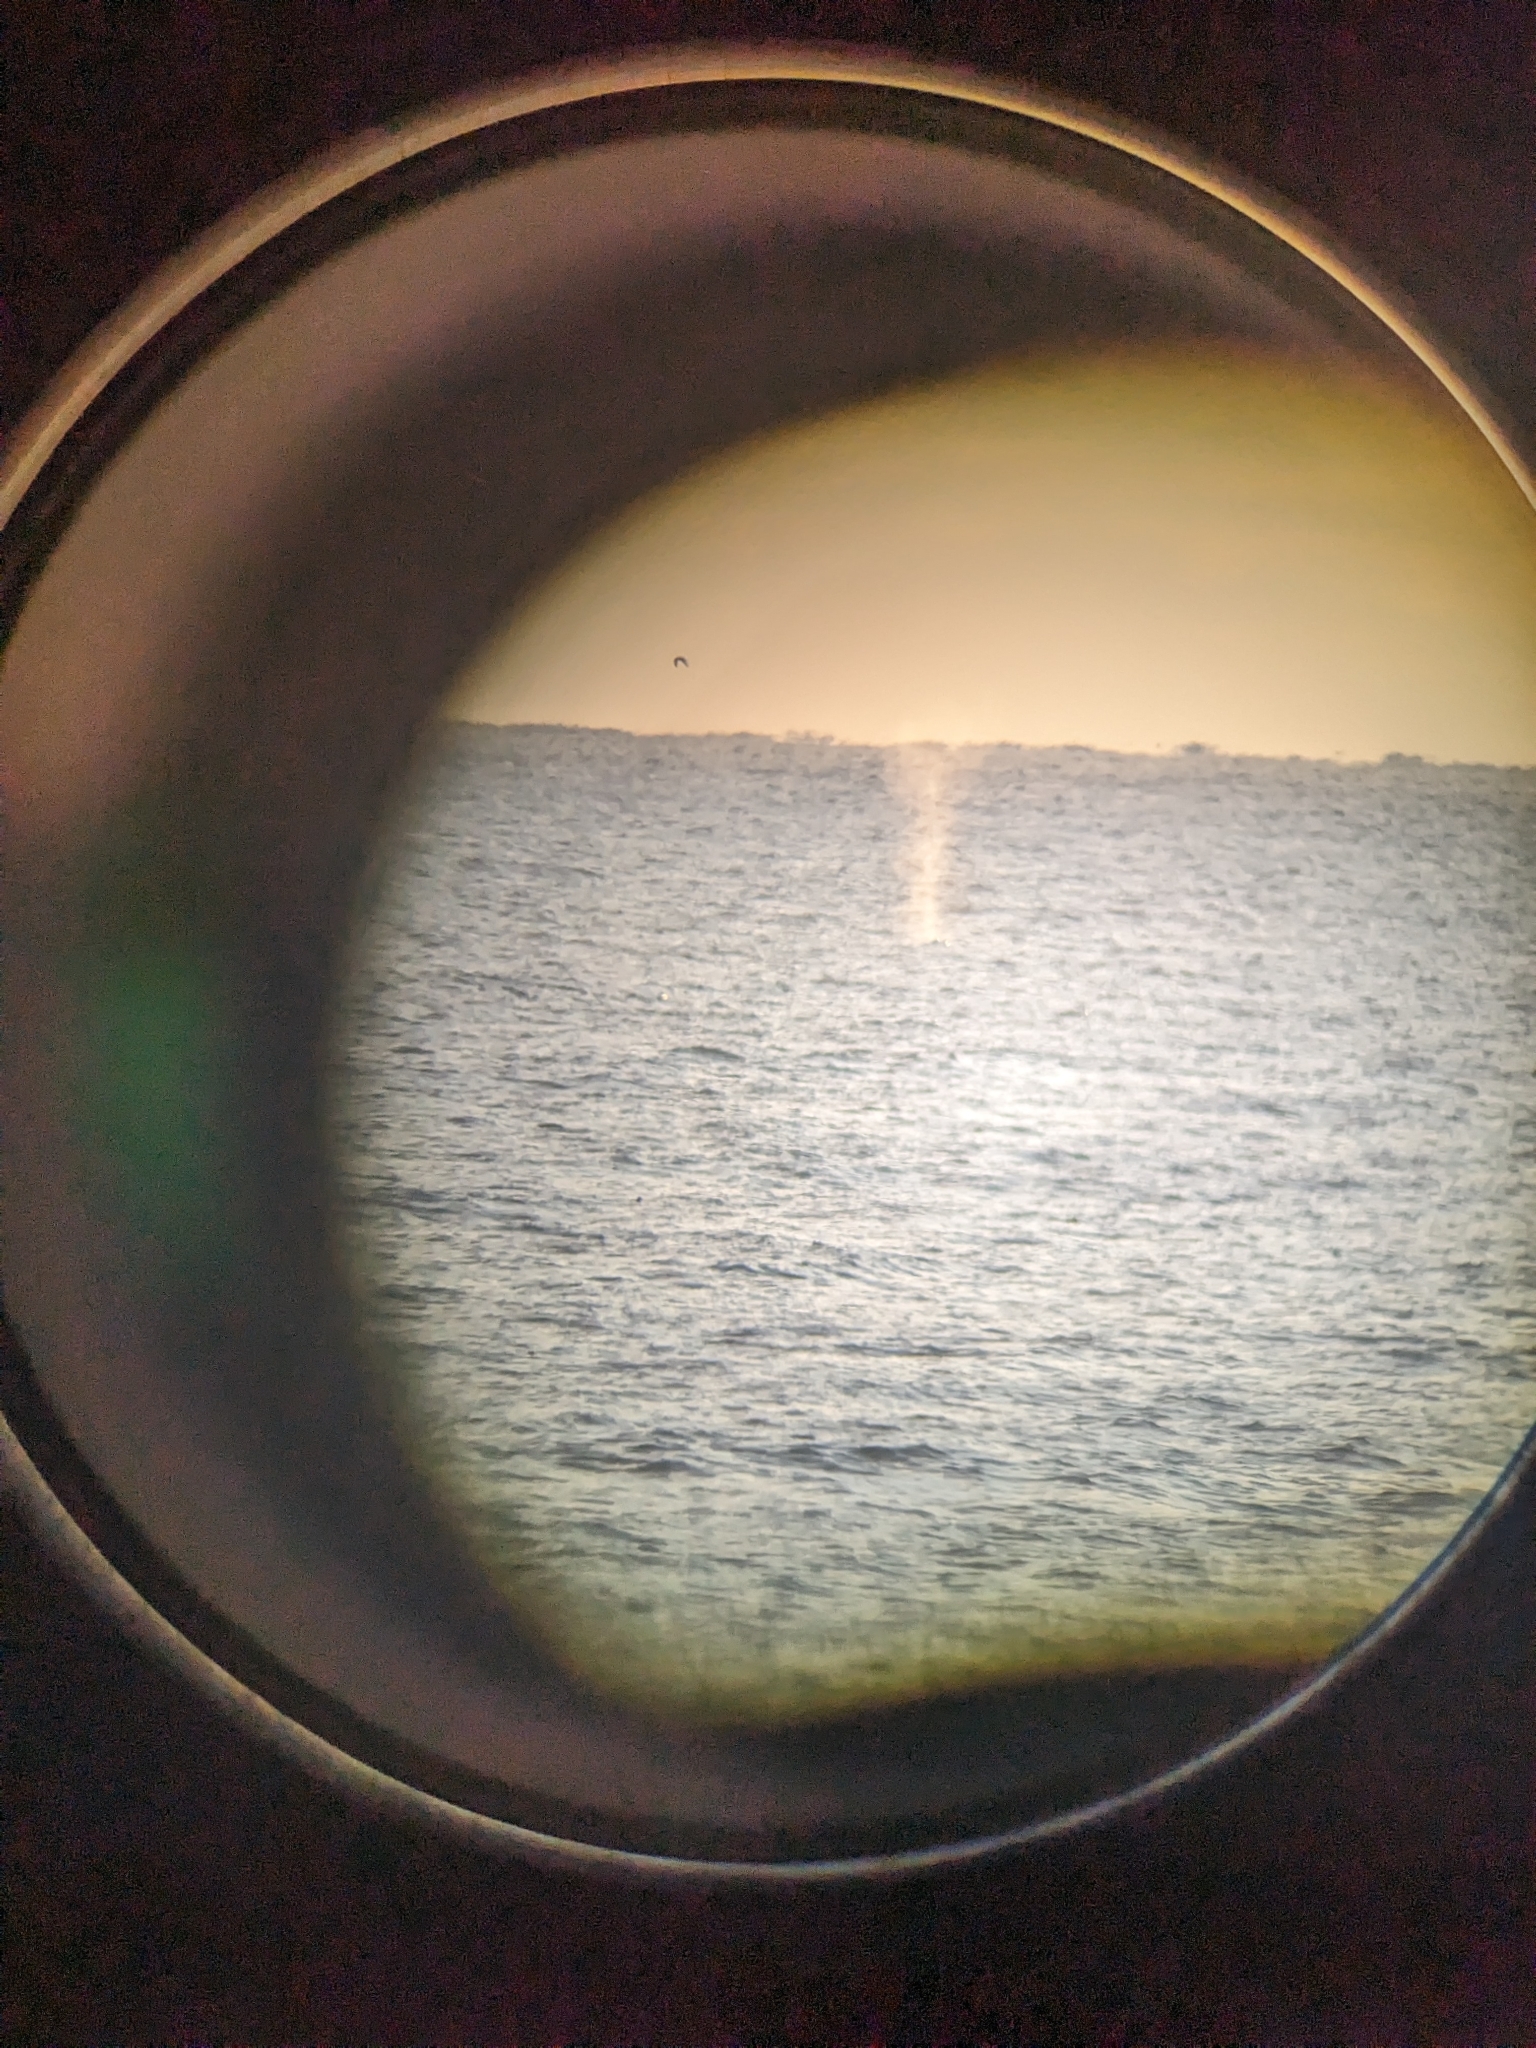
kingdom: Animalia
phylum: Chordata
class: Mammalia
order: Cetacea
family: Balaenopteridae
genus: Megaptera
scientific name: Megaptera novaeangliae
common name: Humpback whale
